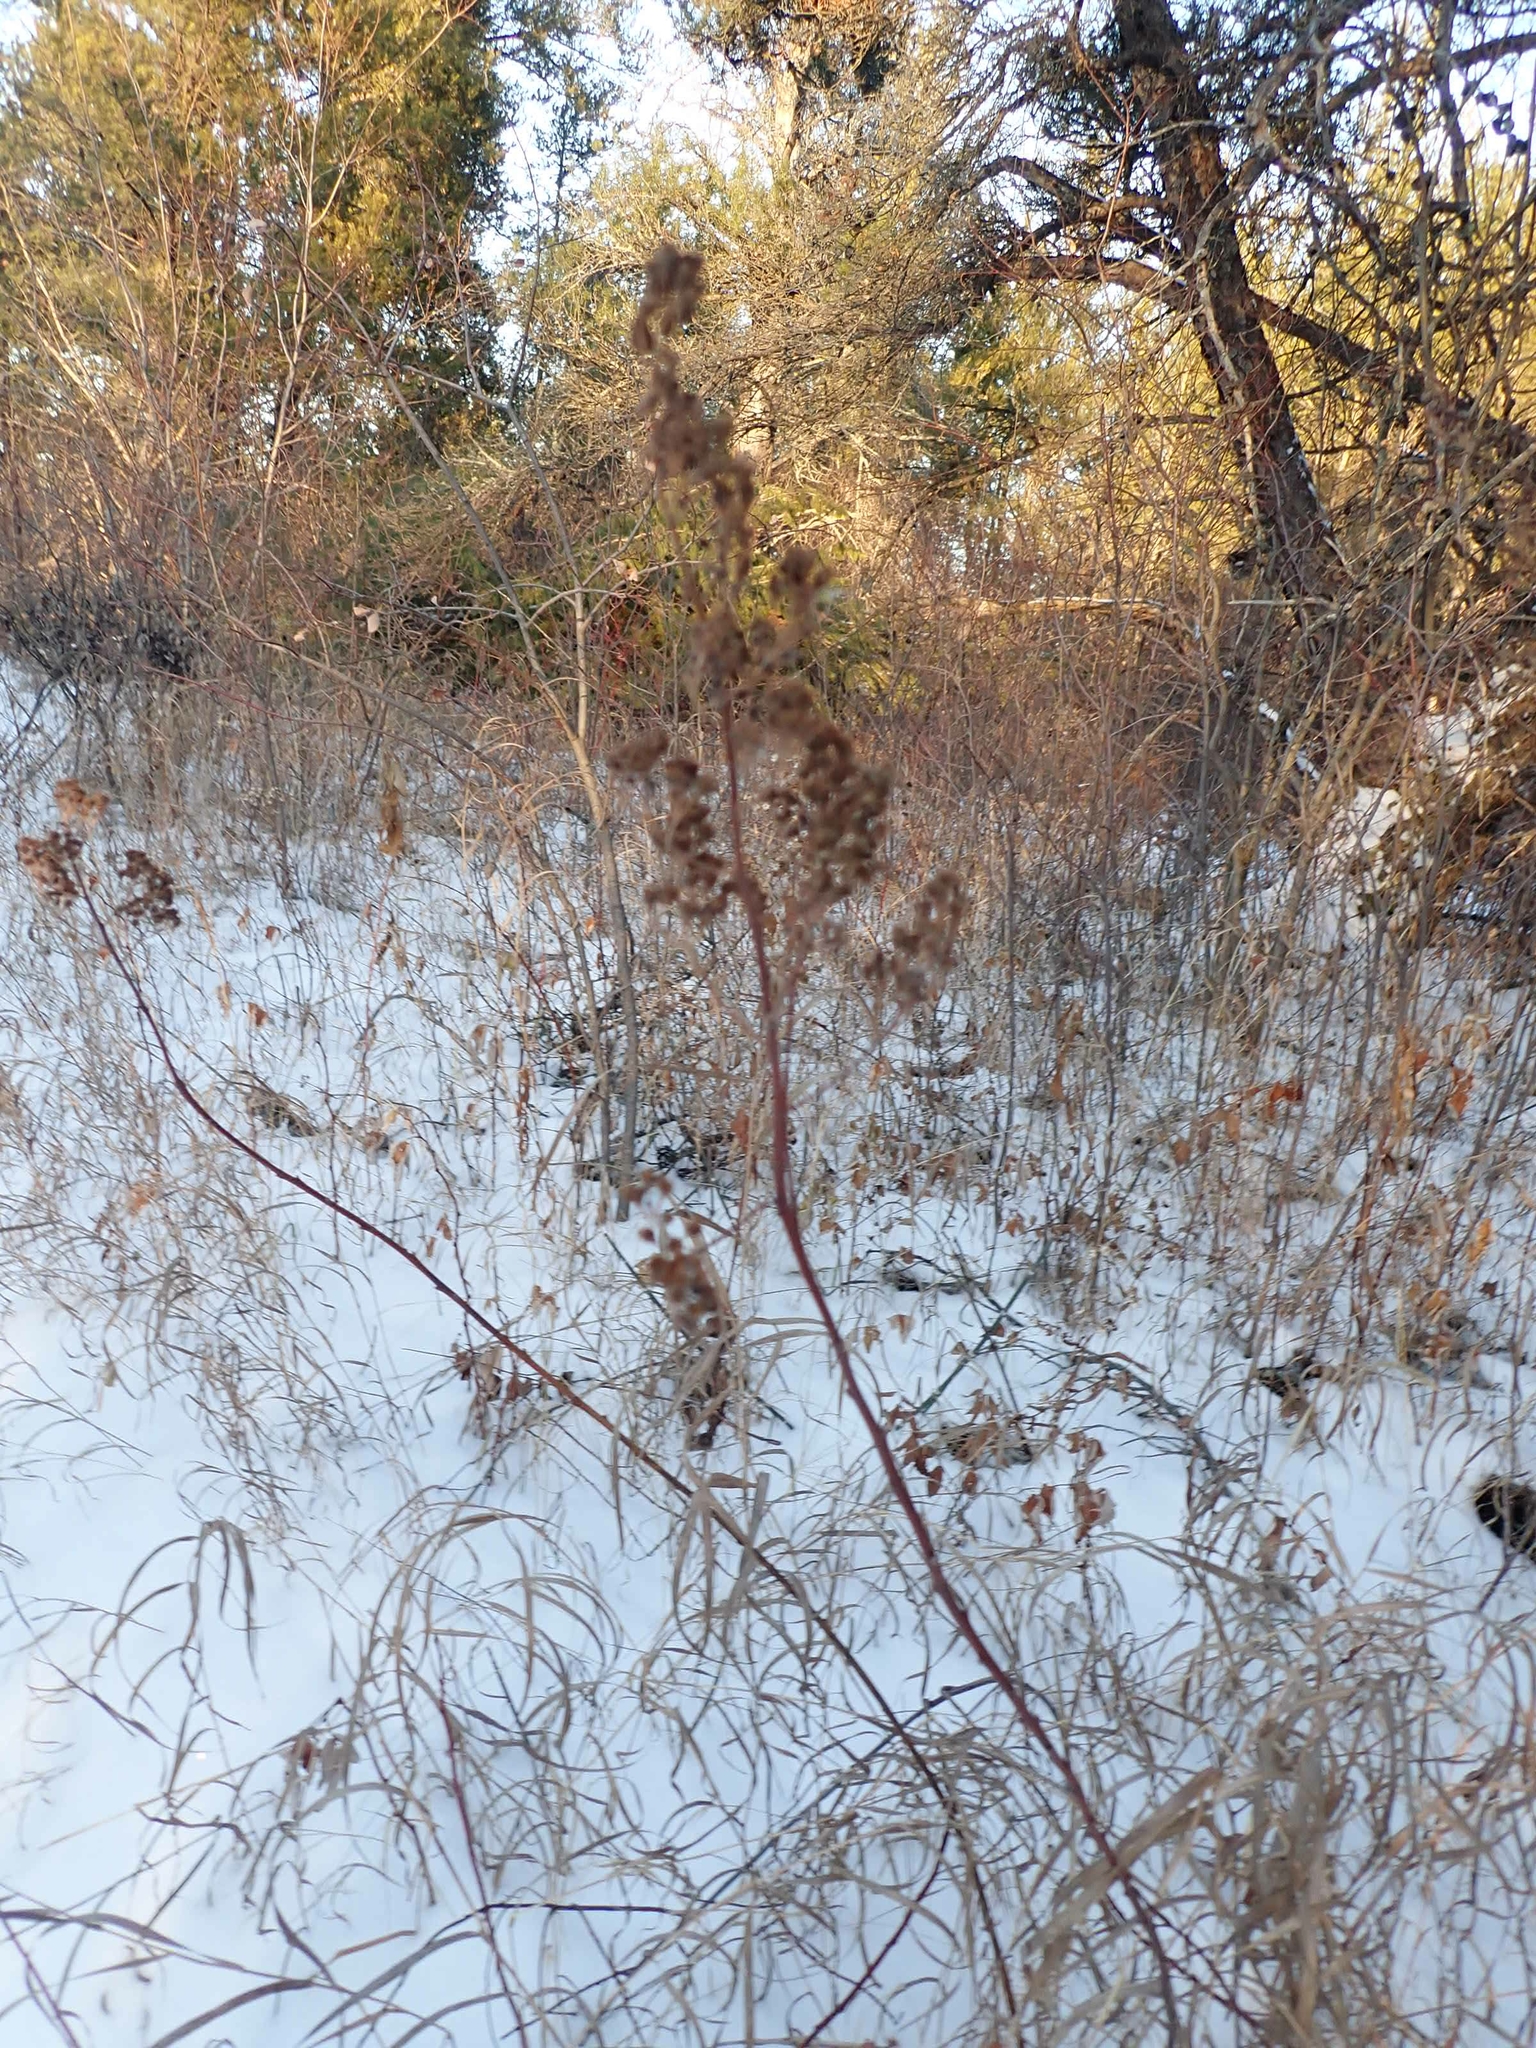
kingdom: Plantae
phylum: Tracheophyta
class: Magnoliopsida
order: Rosales
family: Rosaceae
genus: Spiraea
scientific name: Spiraea alba
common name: Pale bridewort
